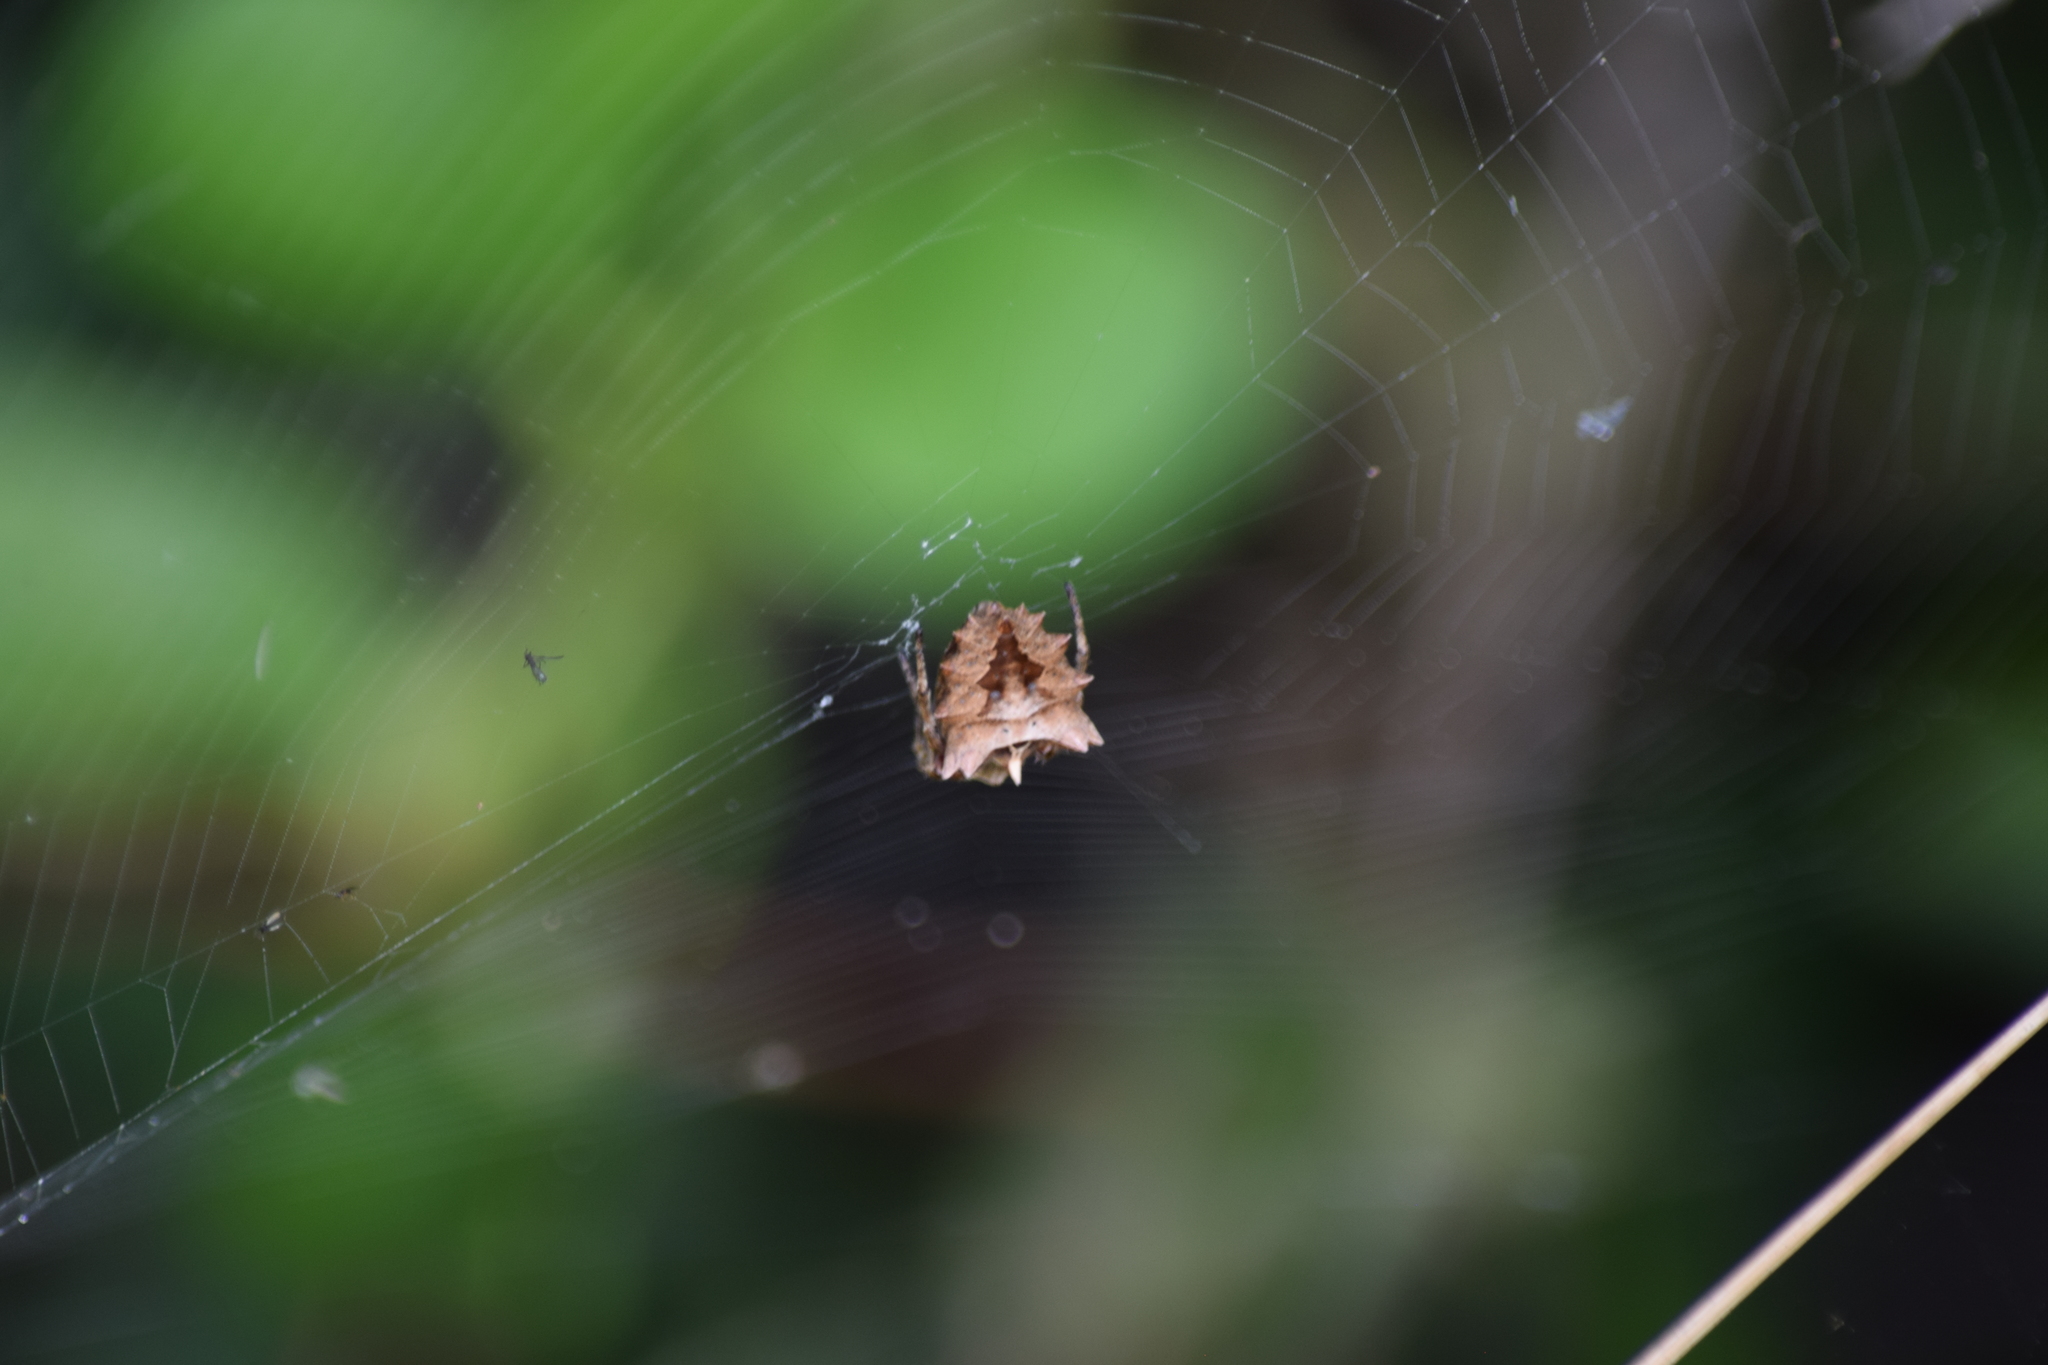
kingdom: Animalia
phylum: Arthropoda
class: Arachnida
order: Araneae
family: Araneidae
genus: Acanthepeira
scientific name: Acanthepeira stellata
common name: Starbellied orbweaver
